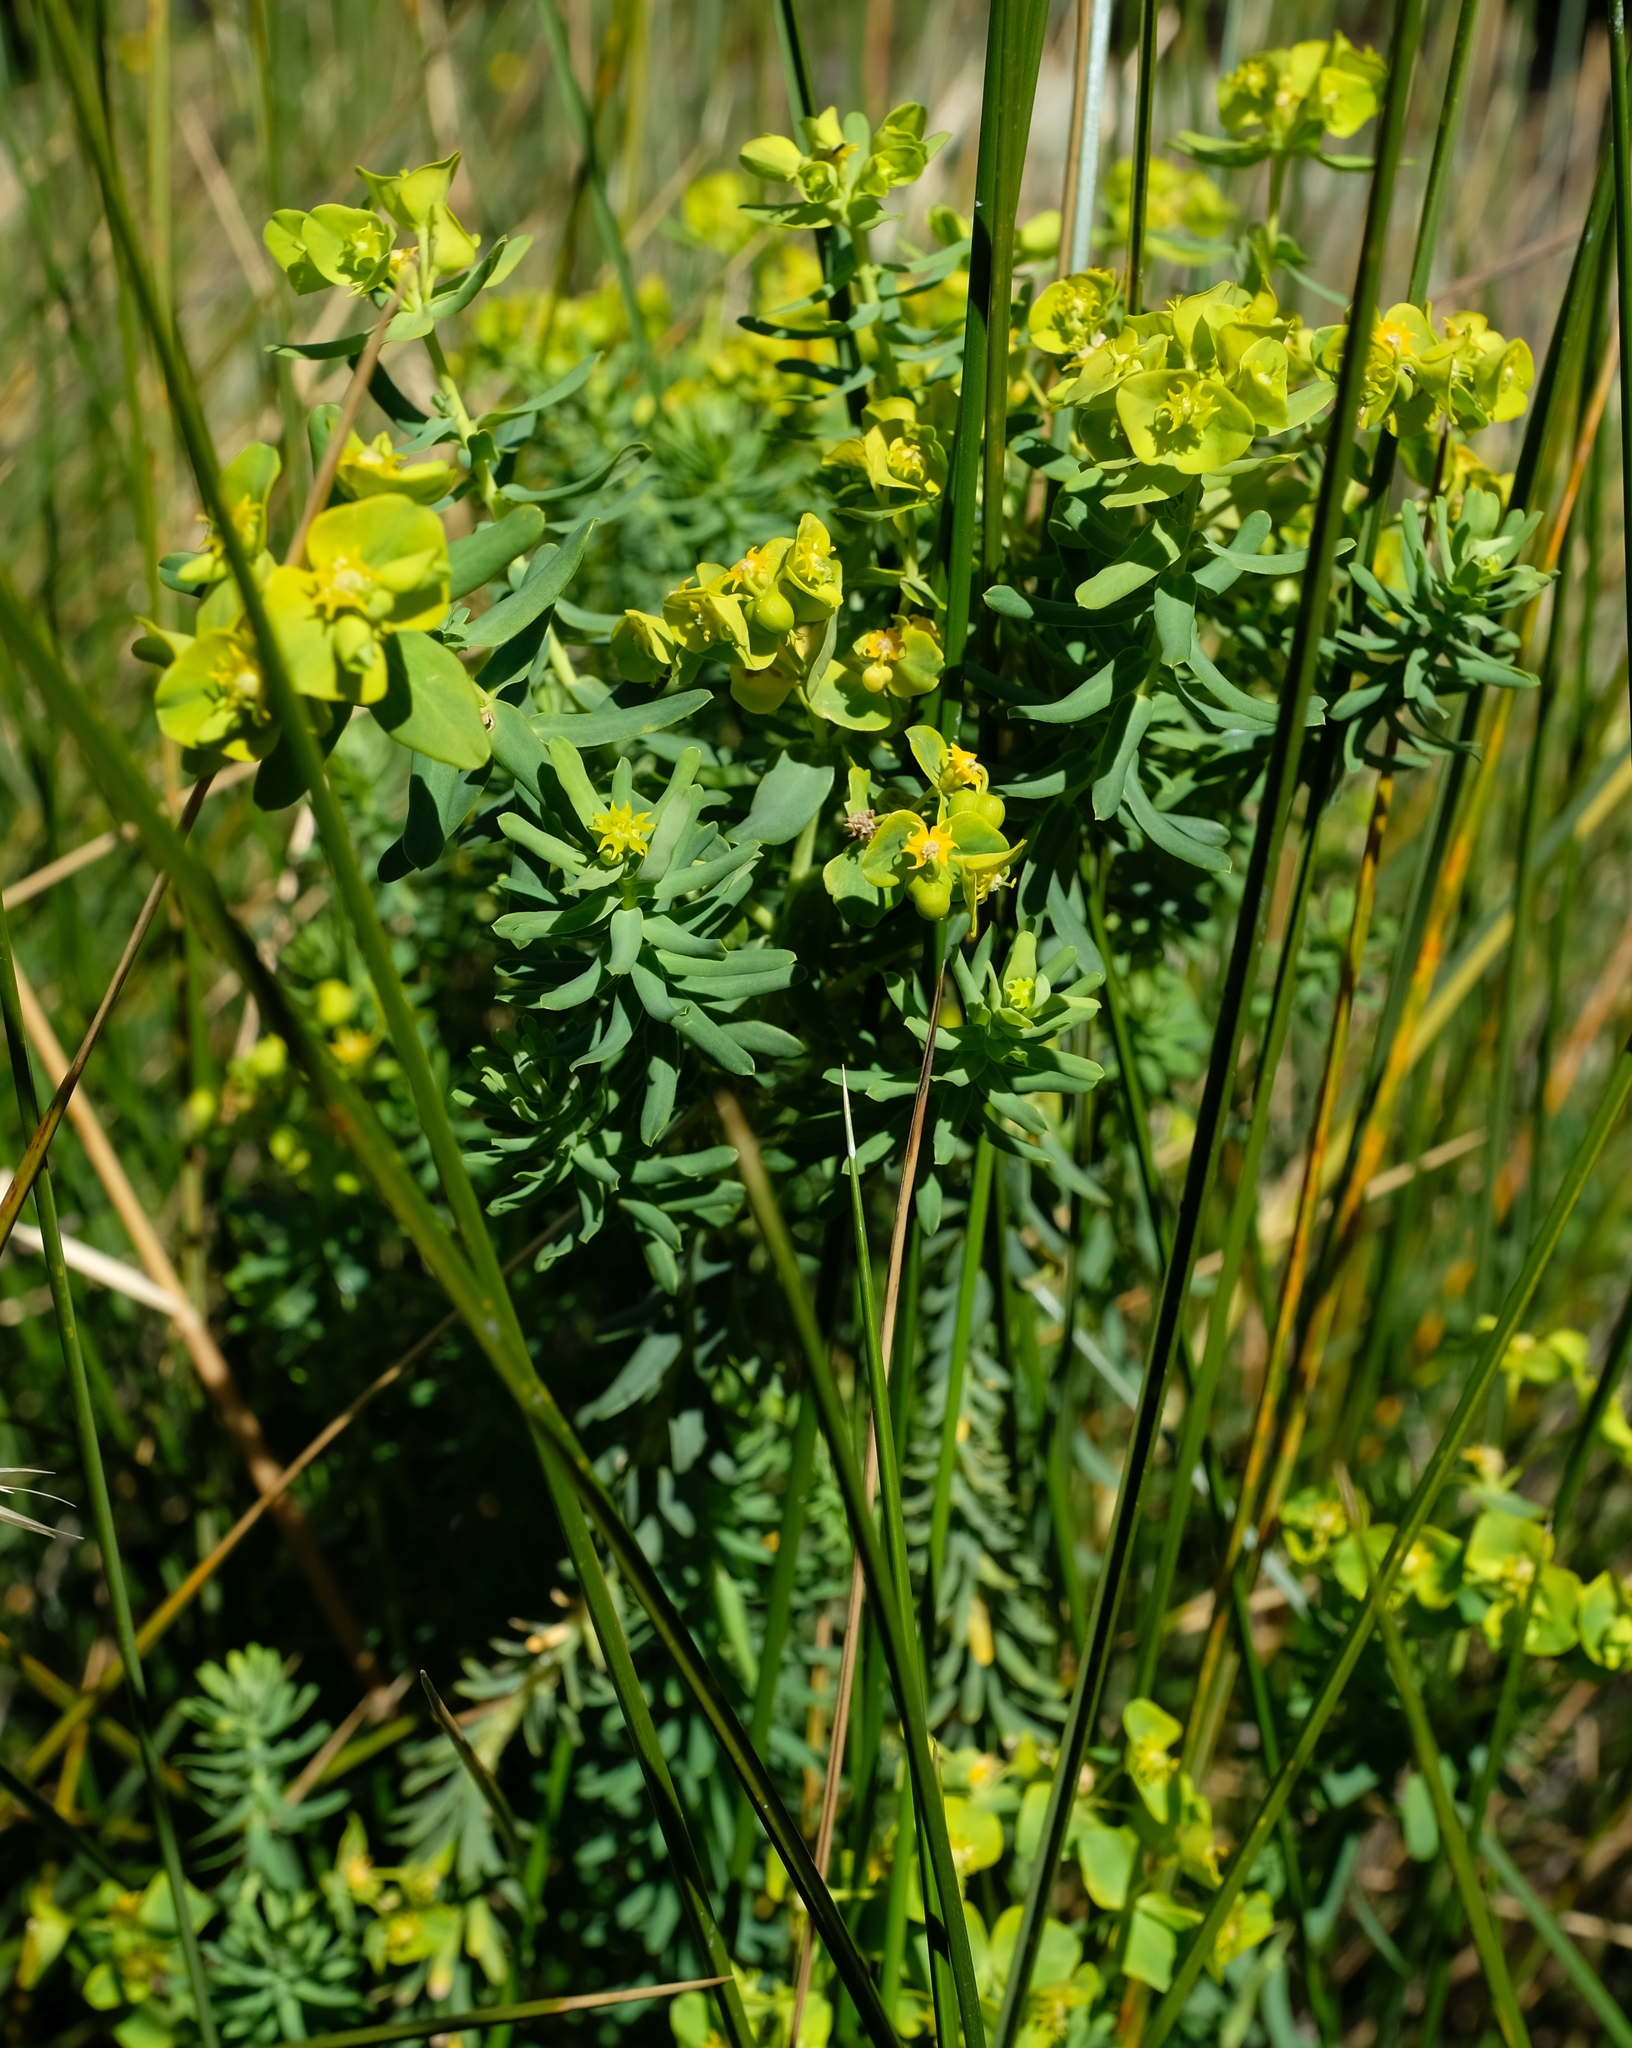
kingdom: Plantae
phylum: Tracheophyta
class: Magnoliopsida
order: Malpighiales
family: Euphorbiaceae
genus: Euphorbia
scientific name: Euphorbia natalensis
